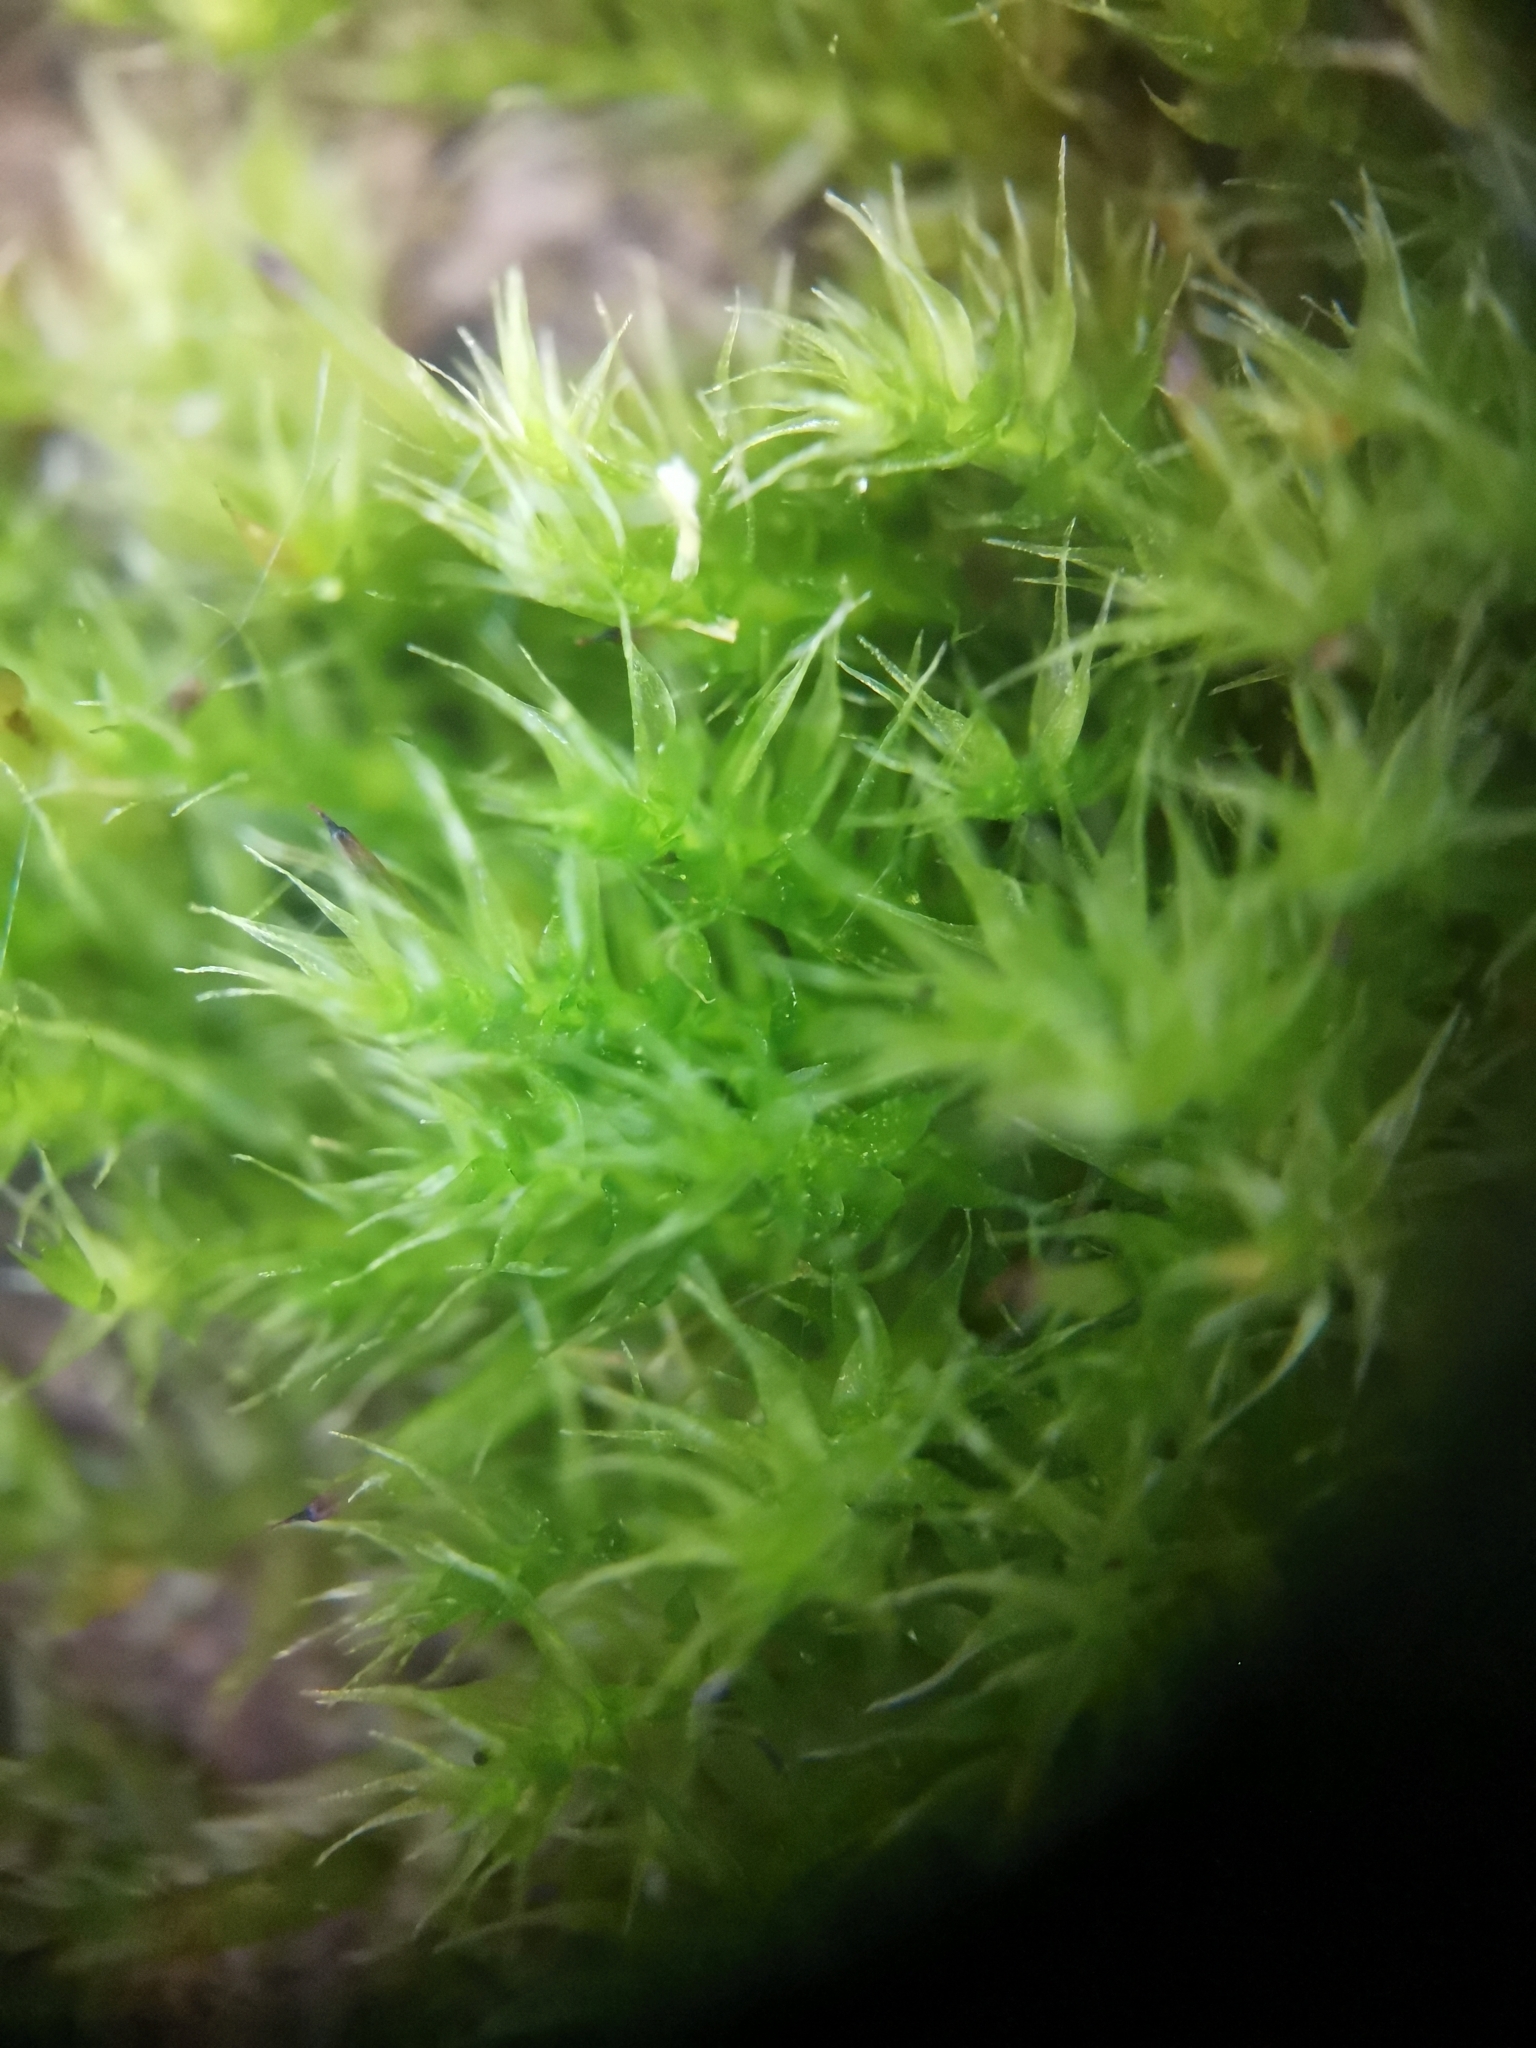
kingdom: Plantae
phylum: Bryophyta
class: Bryopsida
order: Hypnales
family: Pylaisiaceae
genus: Pylaisia
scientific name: Pylaisia polyantha
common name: Many-flowered leskea
